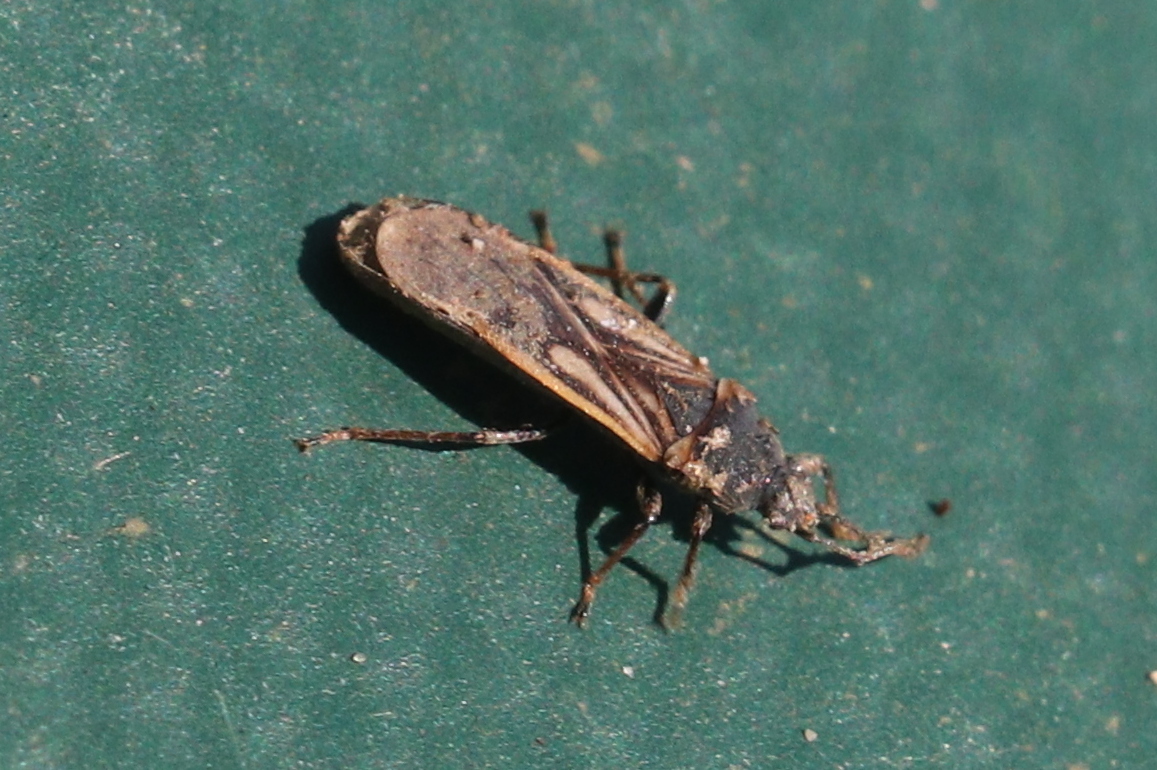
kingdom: Animalia
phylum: Arthropoda
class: Insecta
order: Hemiptera
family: Blissidae
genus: Ischnodemus
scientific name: Ischnodemus sabuleti
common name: European cinchbug
